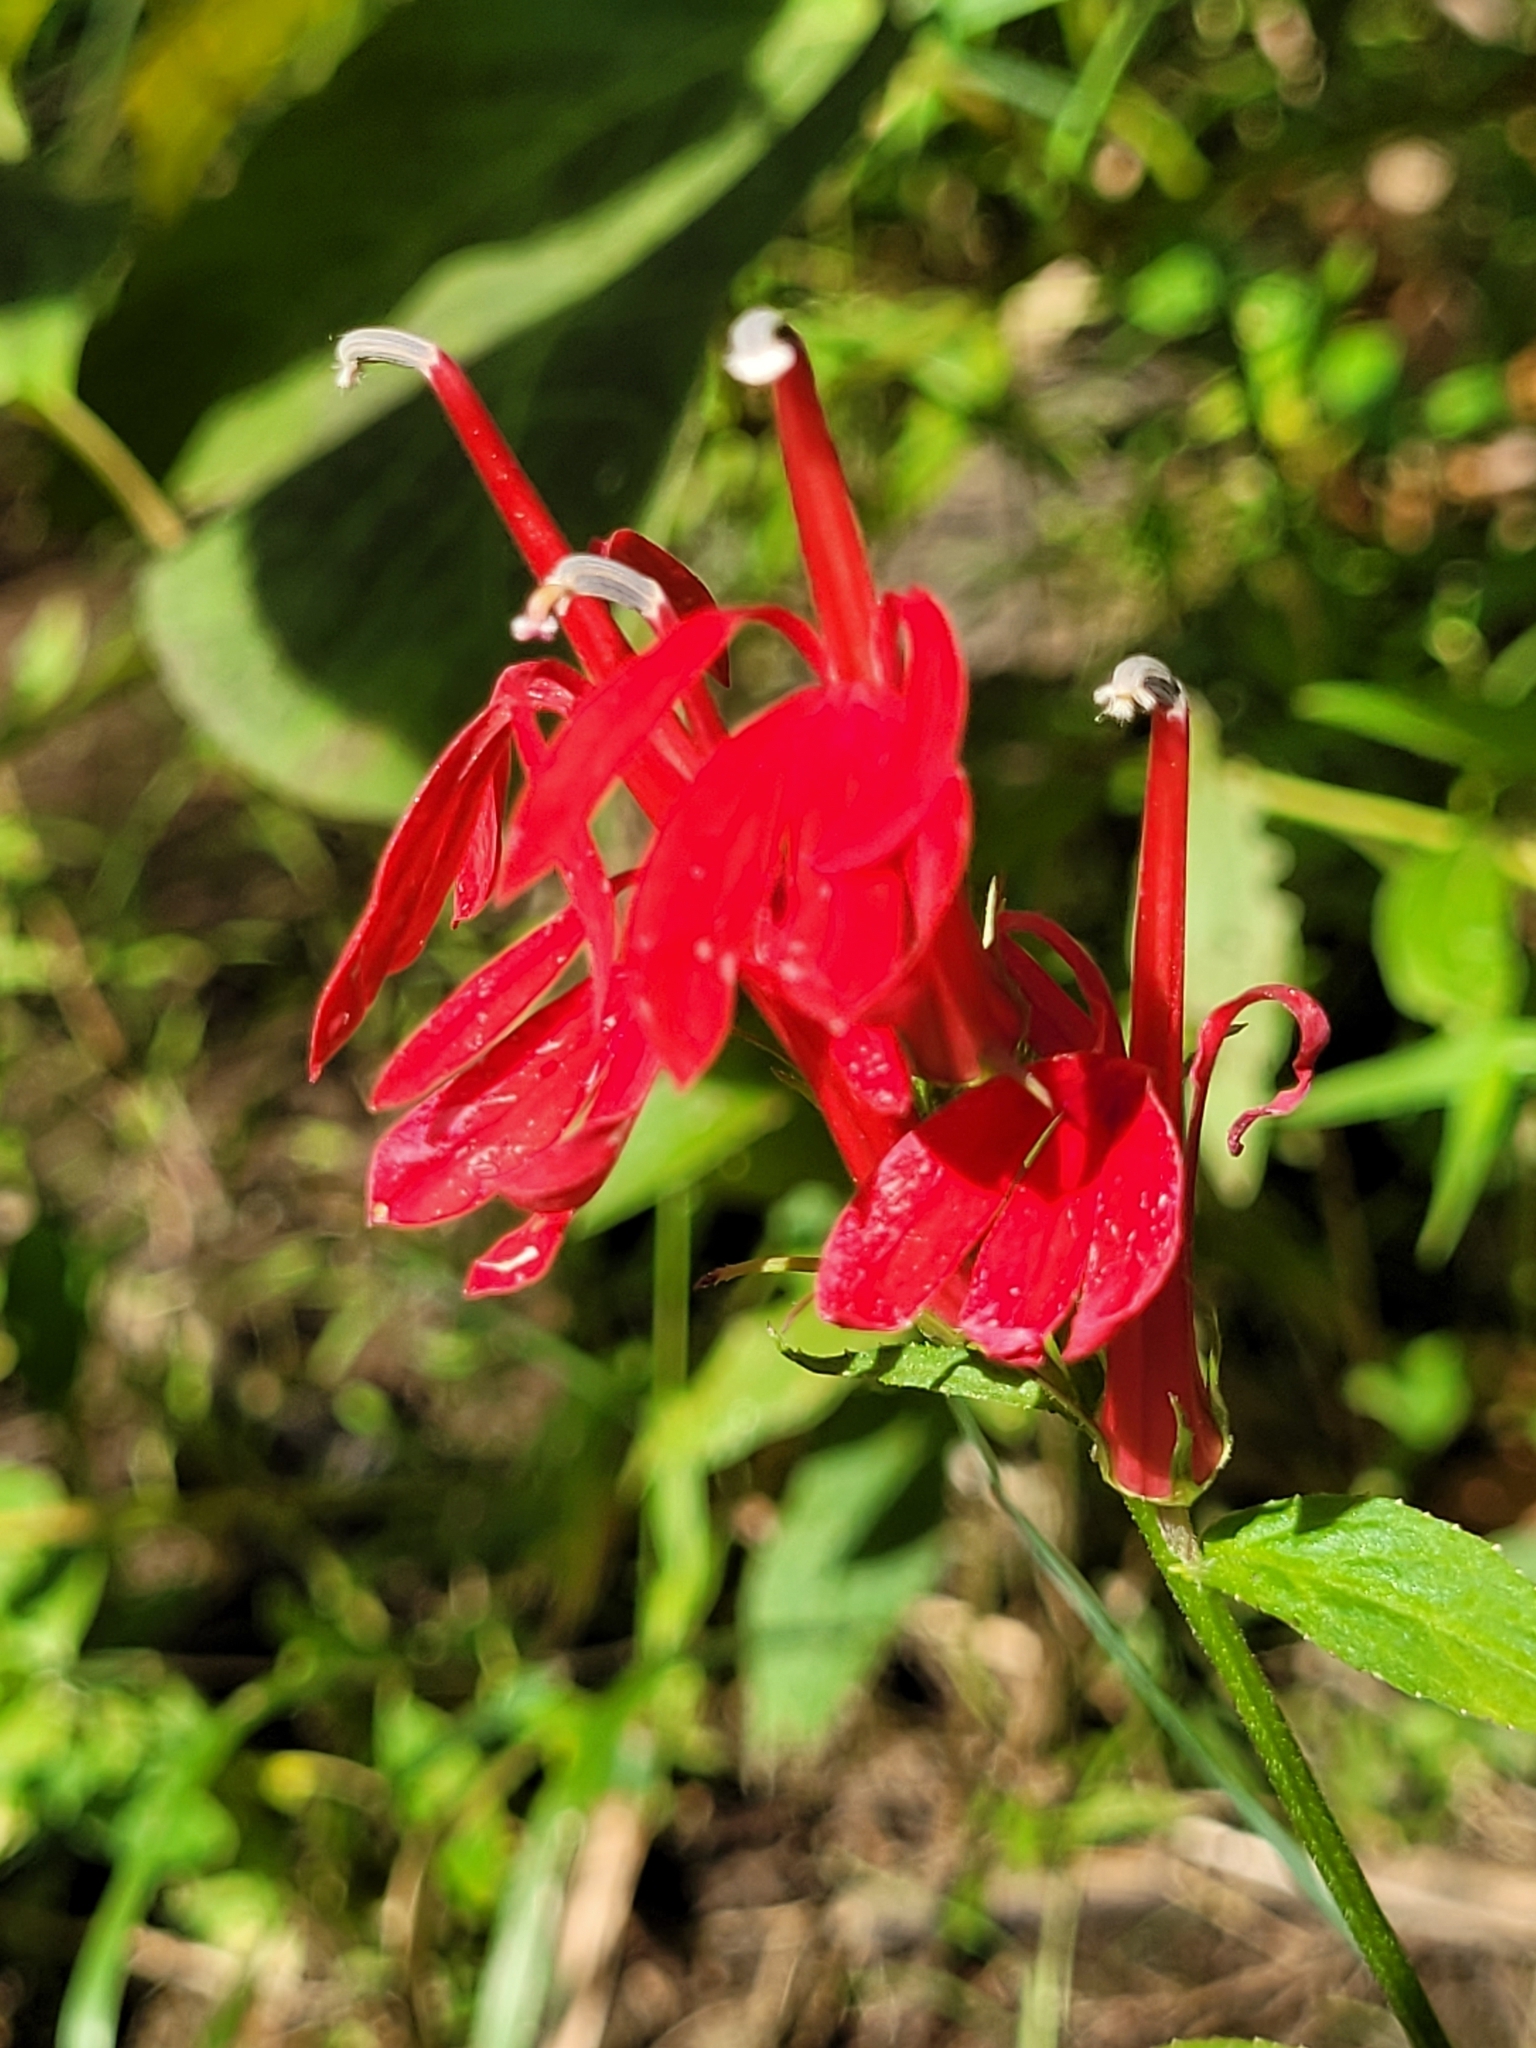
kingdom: Plantae
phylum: Tracheophyta
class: Magnoliopsida
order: Asterales
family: Campanulaceae
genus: Lobelia
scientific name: Lobelia cardinalis
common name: Cardinal flower
